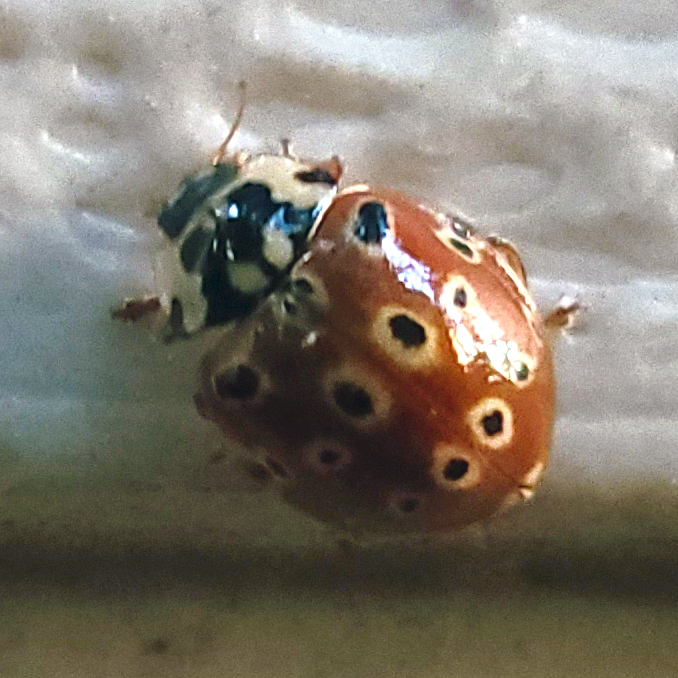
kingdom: Animalia
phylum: Arthropoda
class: Insecta
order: Coleoptera
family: Coccinellidae
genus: Anatis
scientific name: Anatis mali
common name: Eye-spotted lady beetle
